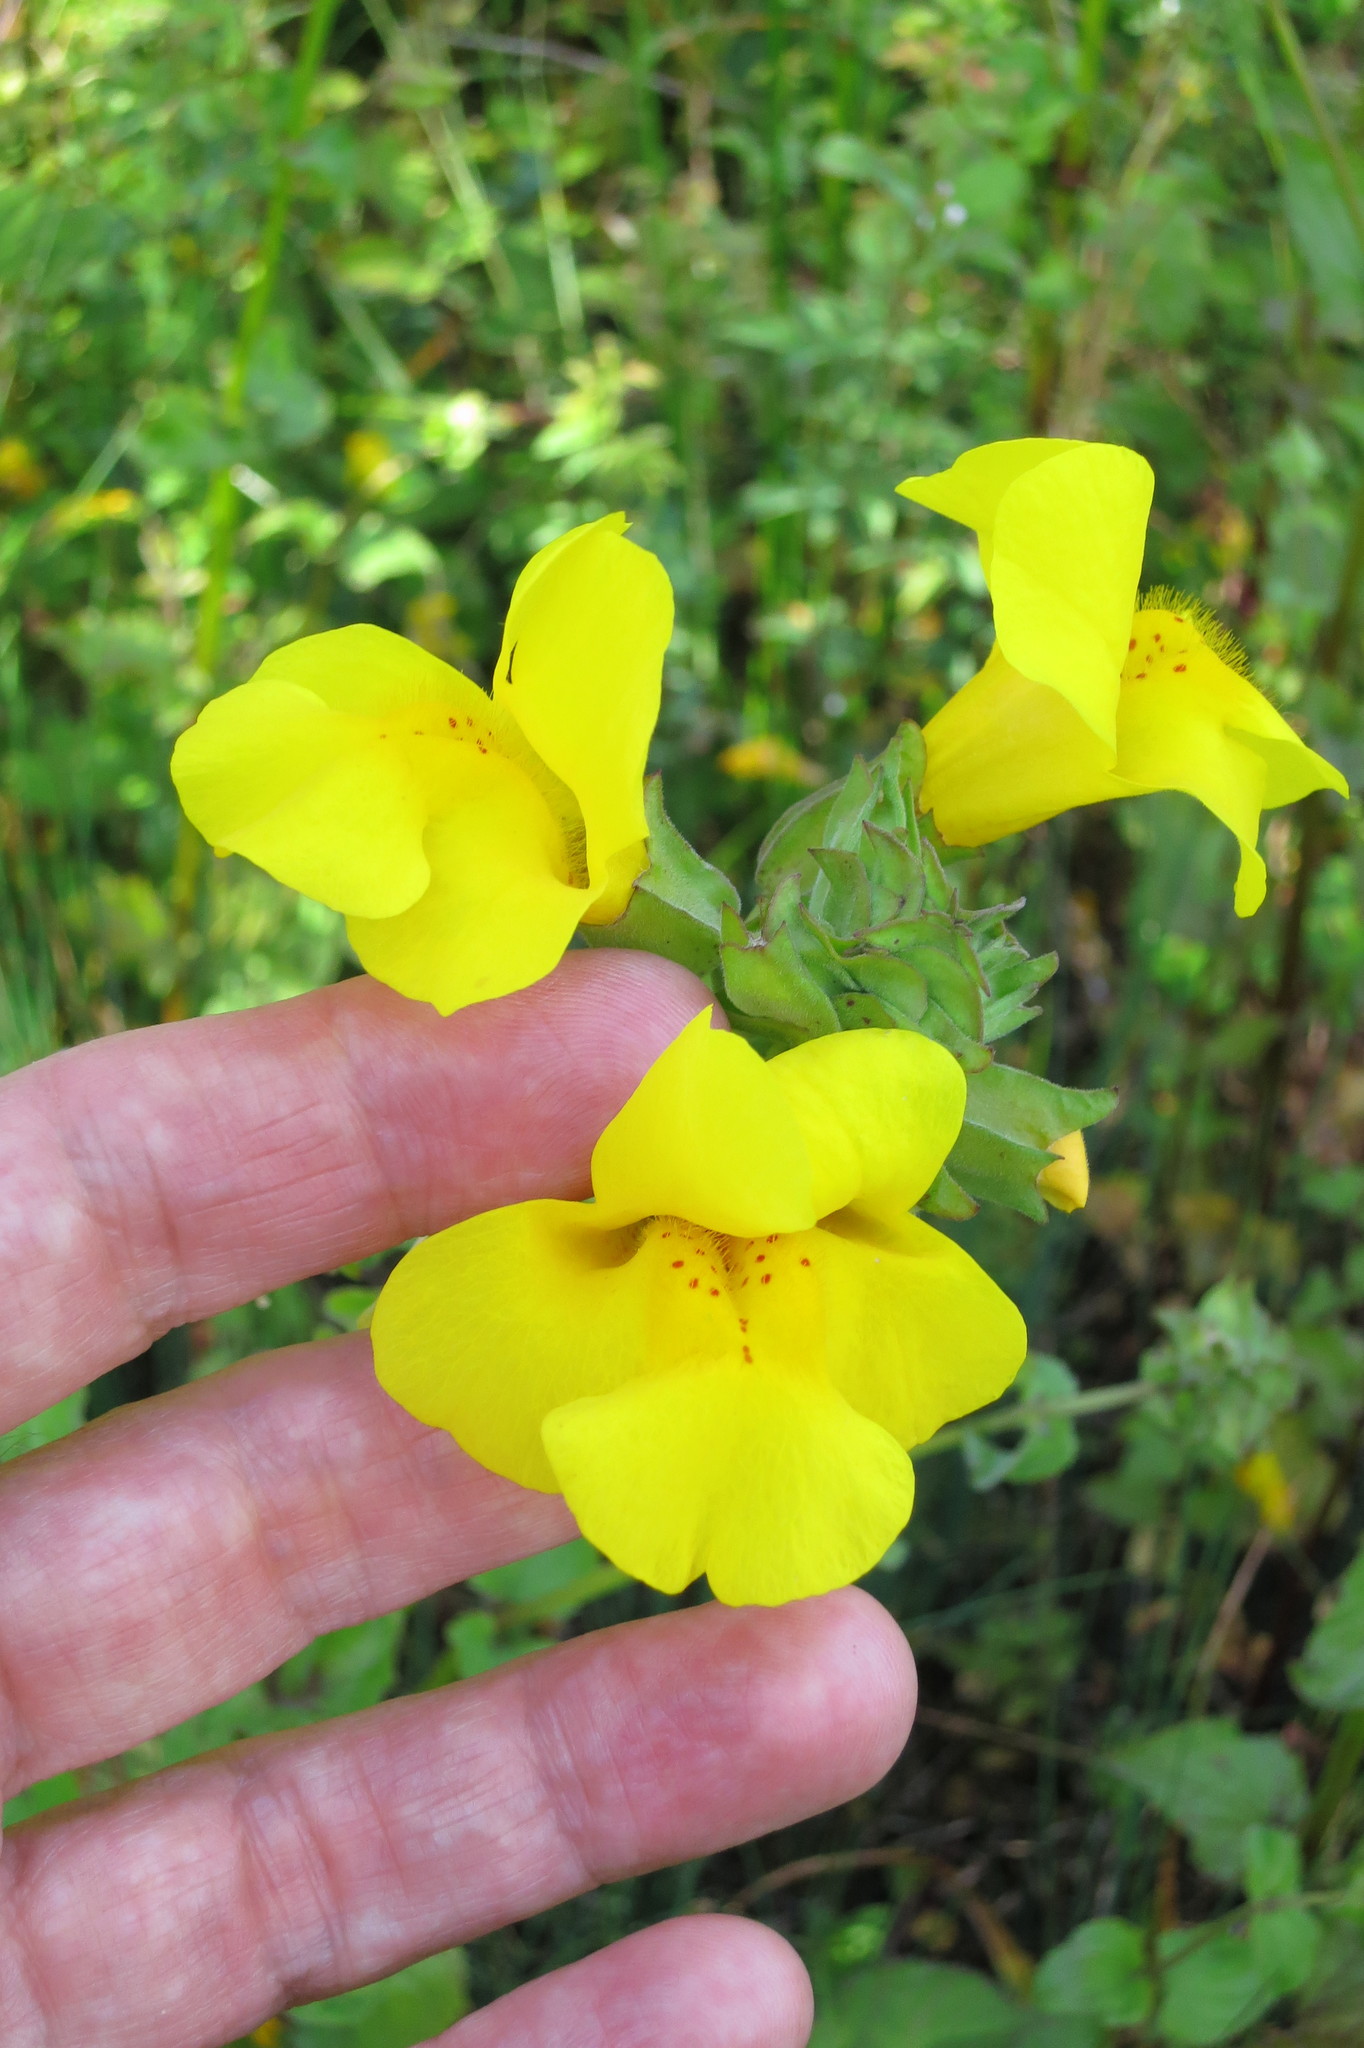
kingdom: Plantae
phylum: Tracheophyta
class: Magnoliopsida
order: Lamiales
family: Phrymaceae
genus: Erythranthe
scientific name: Erythranthe guttata
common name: Monkeyflower
